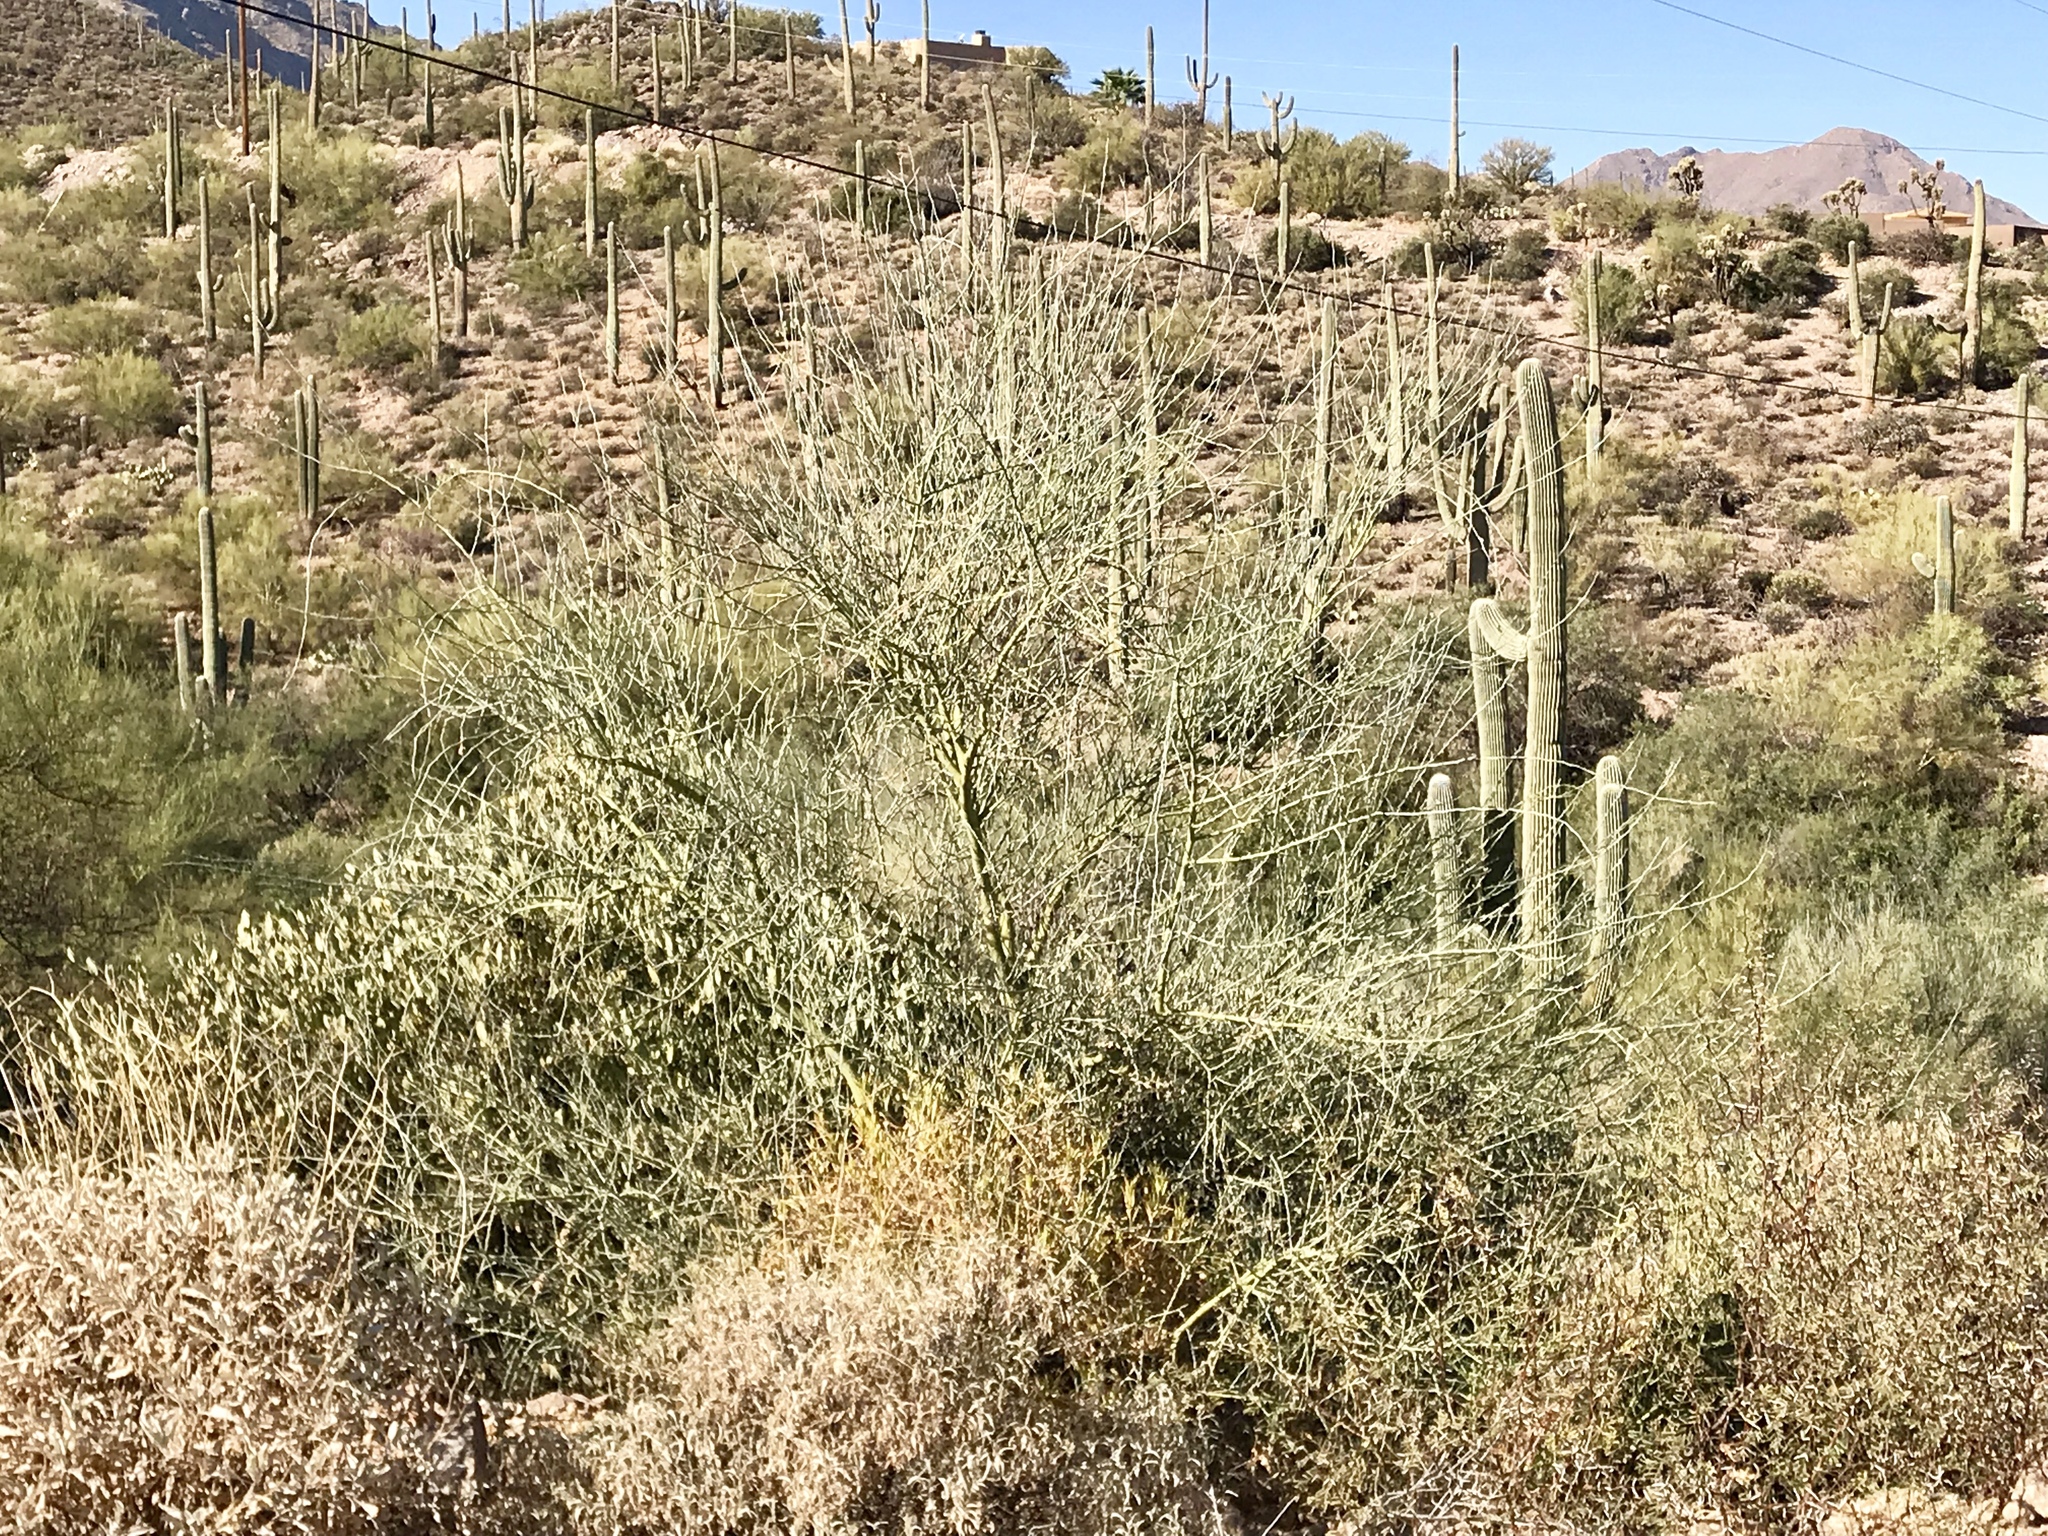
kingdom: Plantae
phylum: Tracheophyta
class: Magnoliopsida
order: Fabales
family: Fabaceae
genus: Parkinsonia
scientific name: Parkinsonia florida
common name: Blue paloverde
